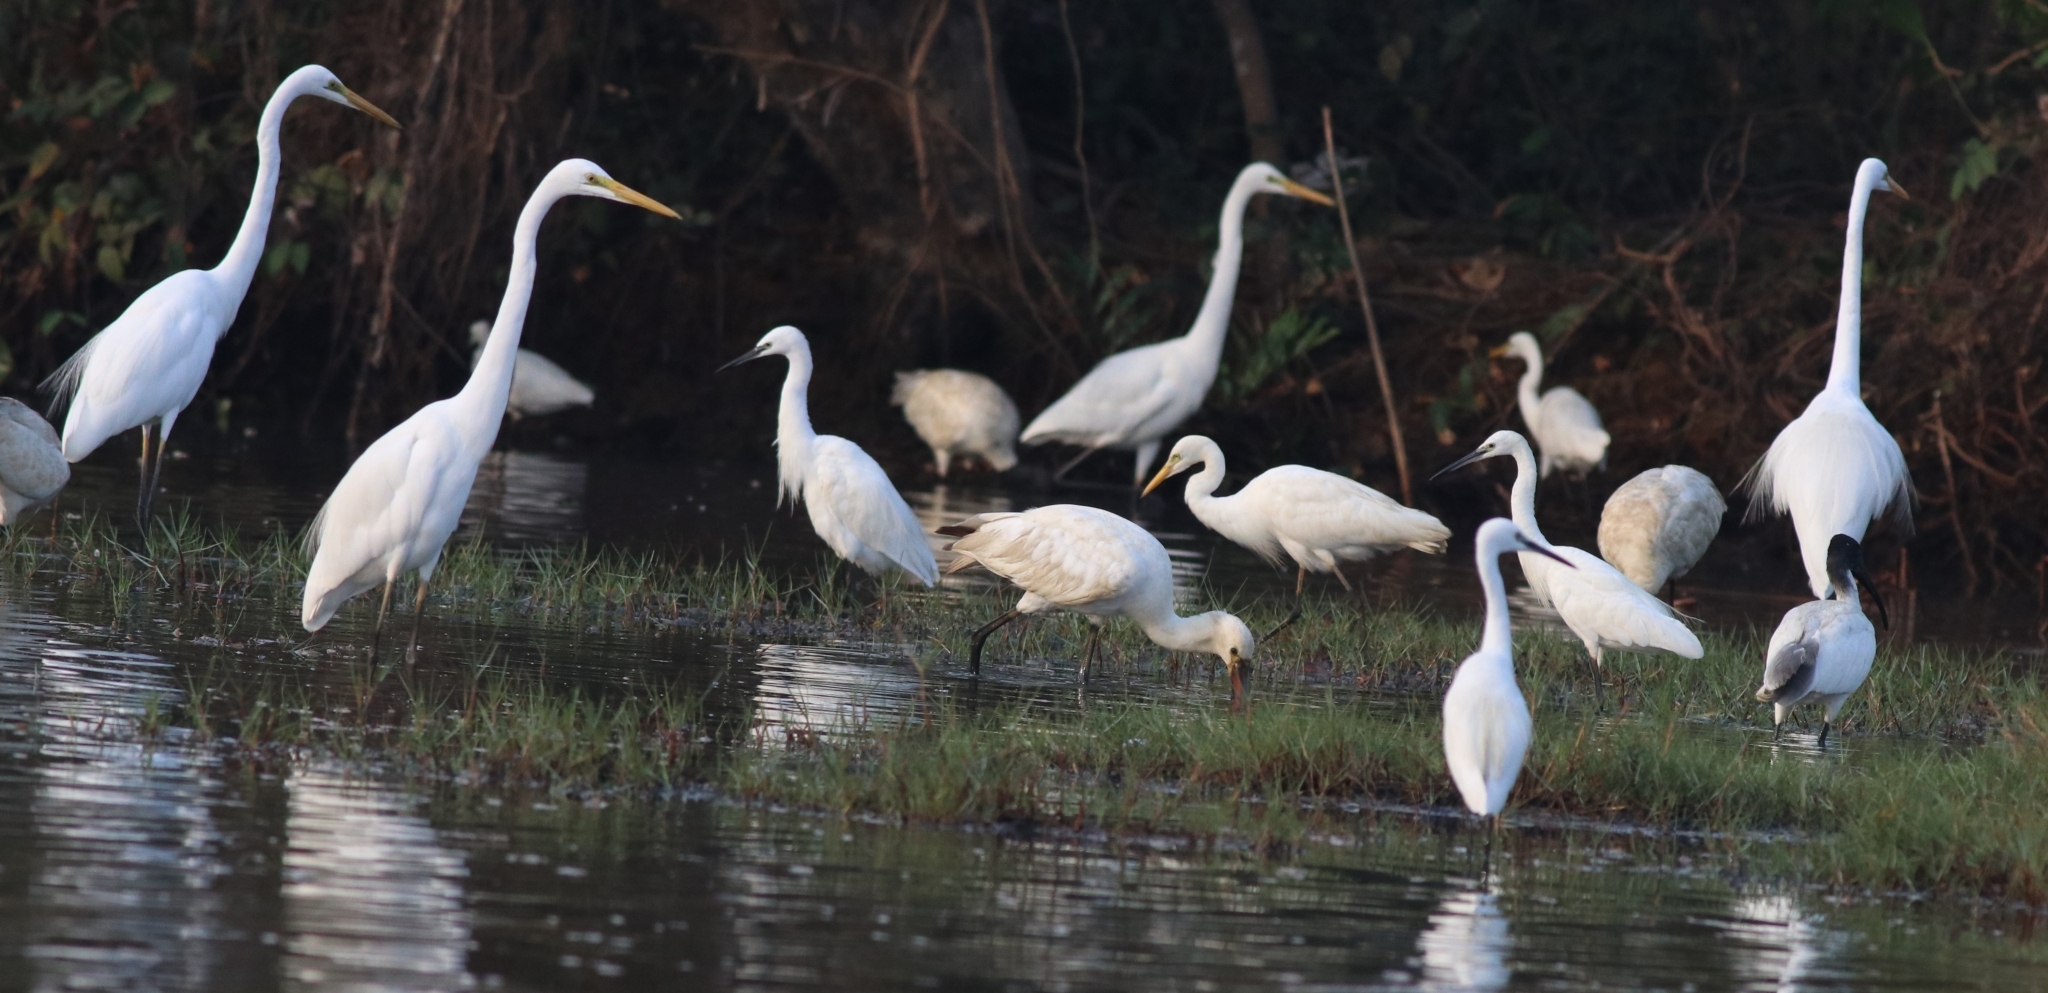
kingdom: Animalia
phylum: Chordata
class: Aves
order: Pelecaniformes
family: Ardeidae
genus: Ardea
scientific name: Ardea alba
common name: Great egret
